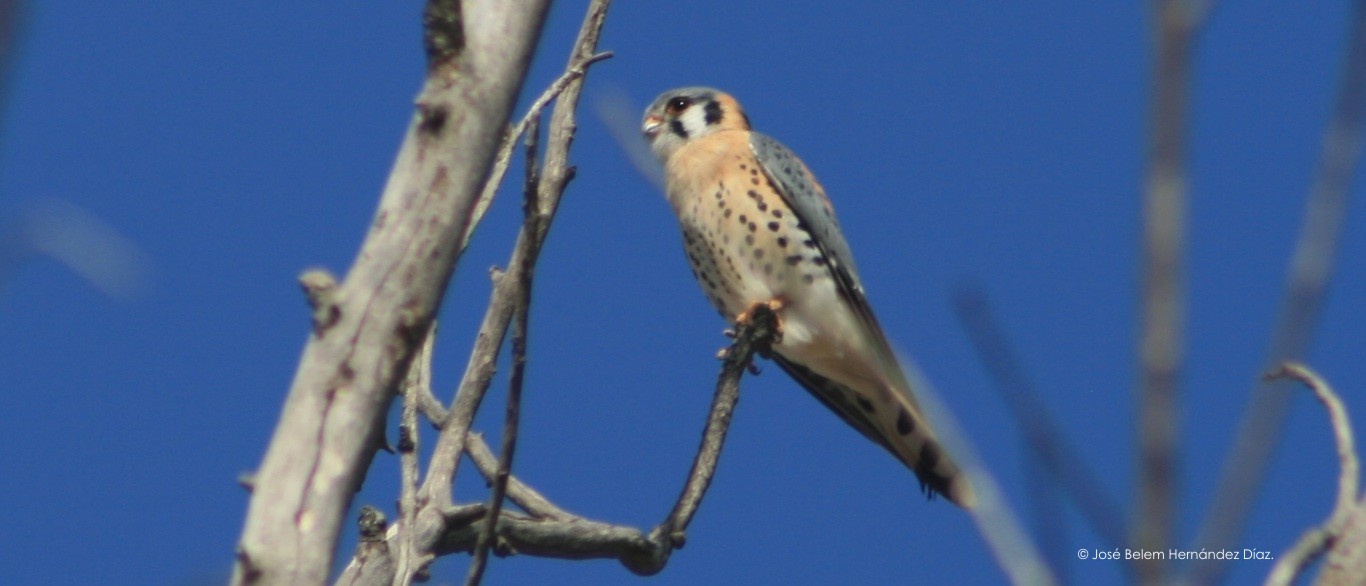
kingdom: Animalia
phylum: Chordata
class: Aves
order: Falconiformes
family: Falconidae
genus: Falco
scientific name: Falco sparverius
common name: American kestrel
